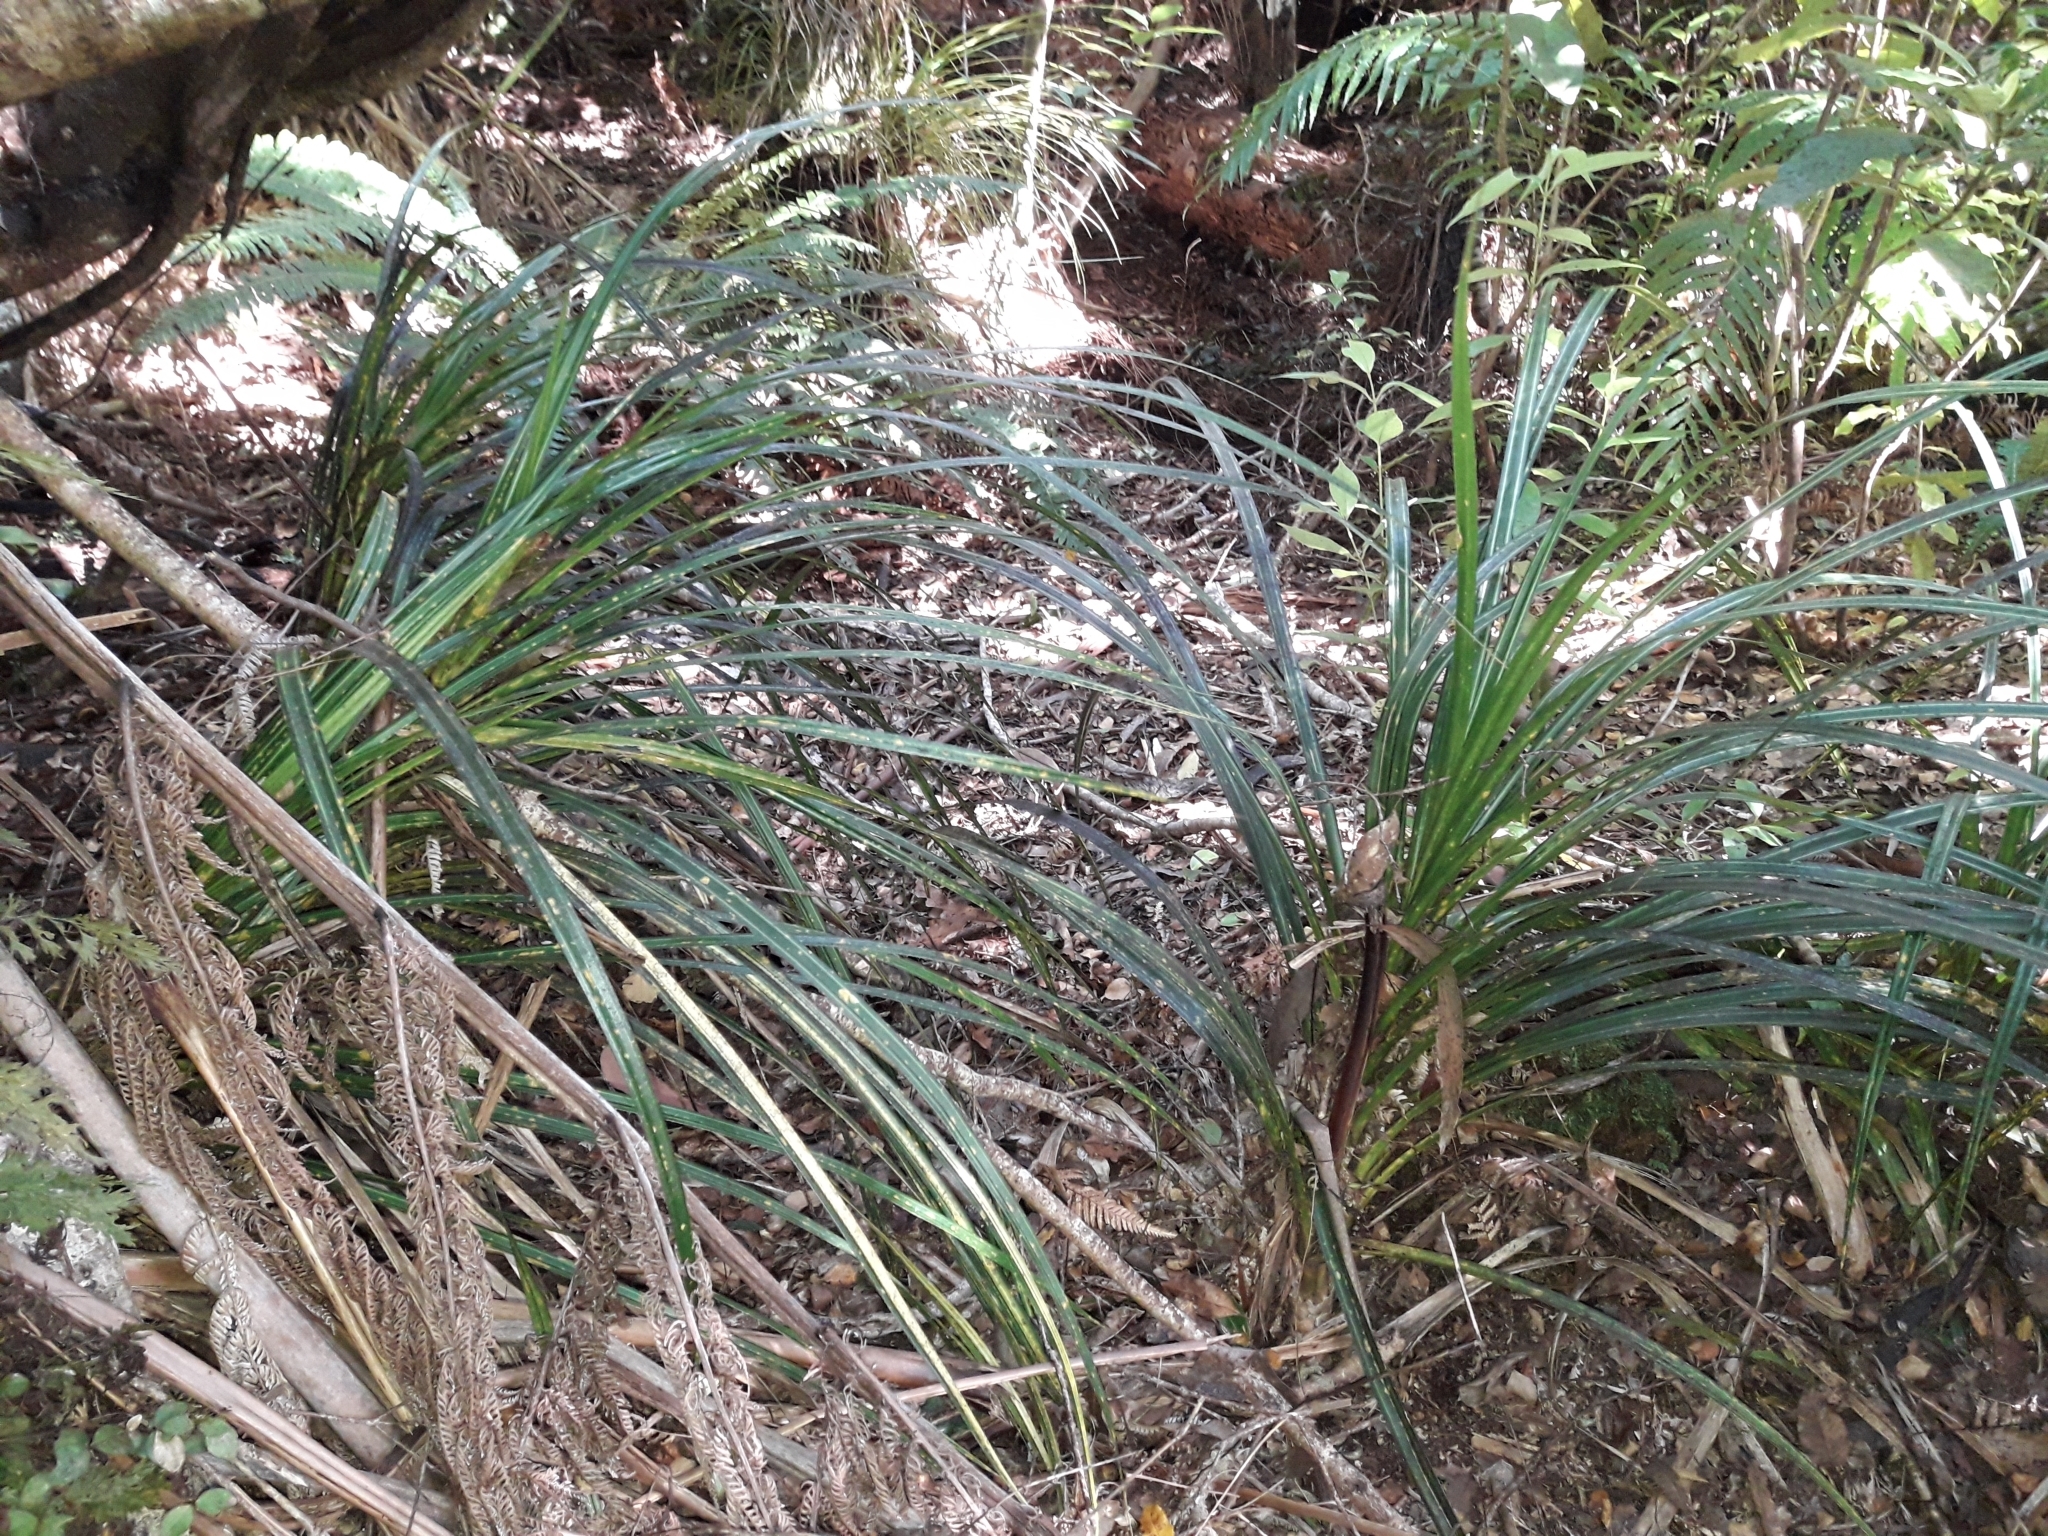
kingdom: Plantae
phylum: Tracheophyta
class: Liliopsida
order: Pandanales
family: Pandanaceae
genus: Freycinetia
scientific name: Freycinetia banksii
